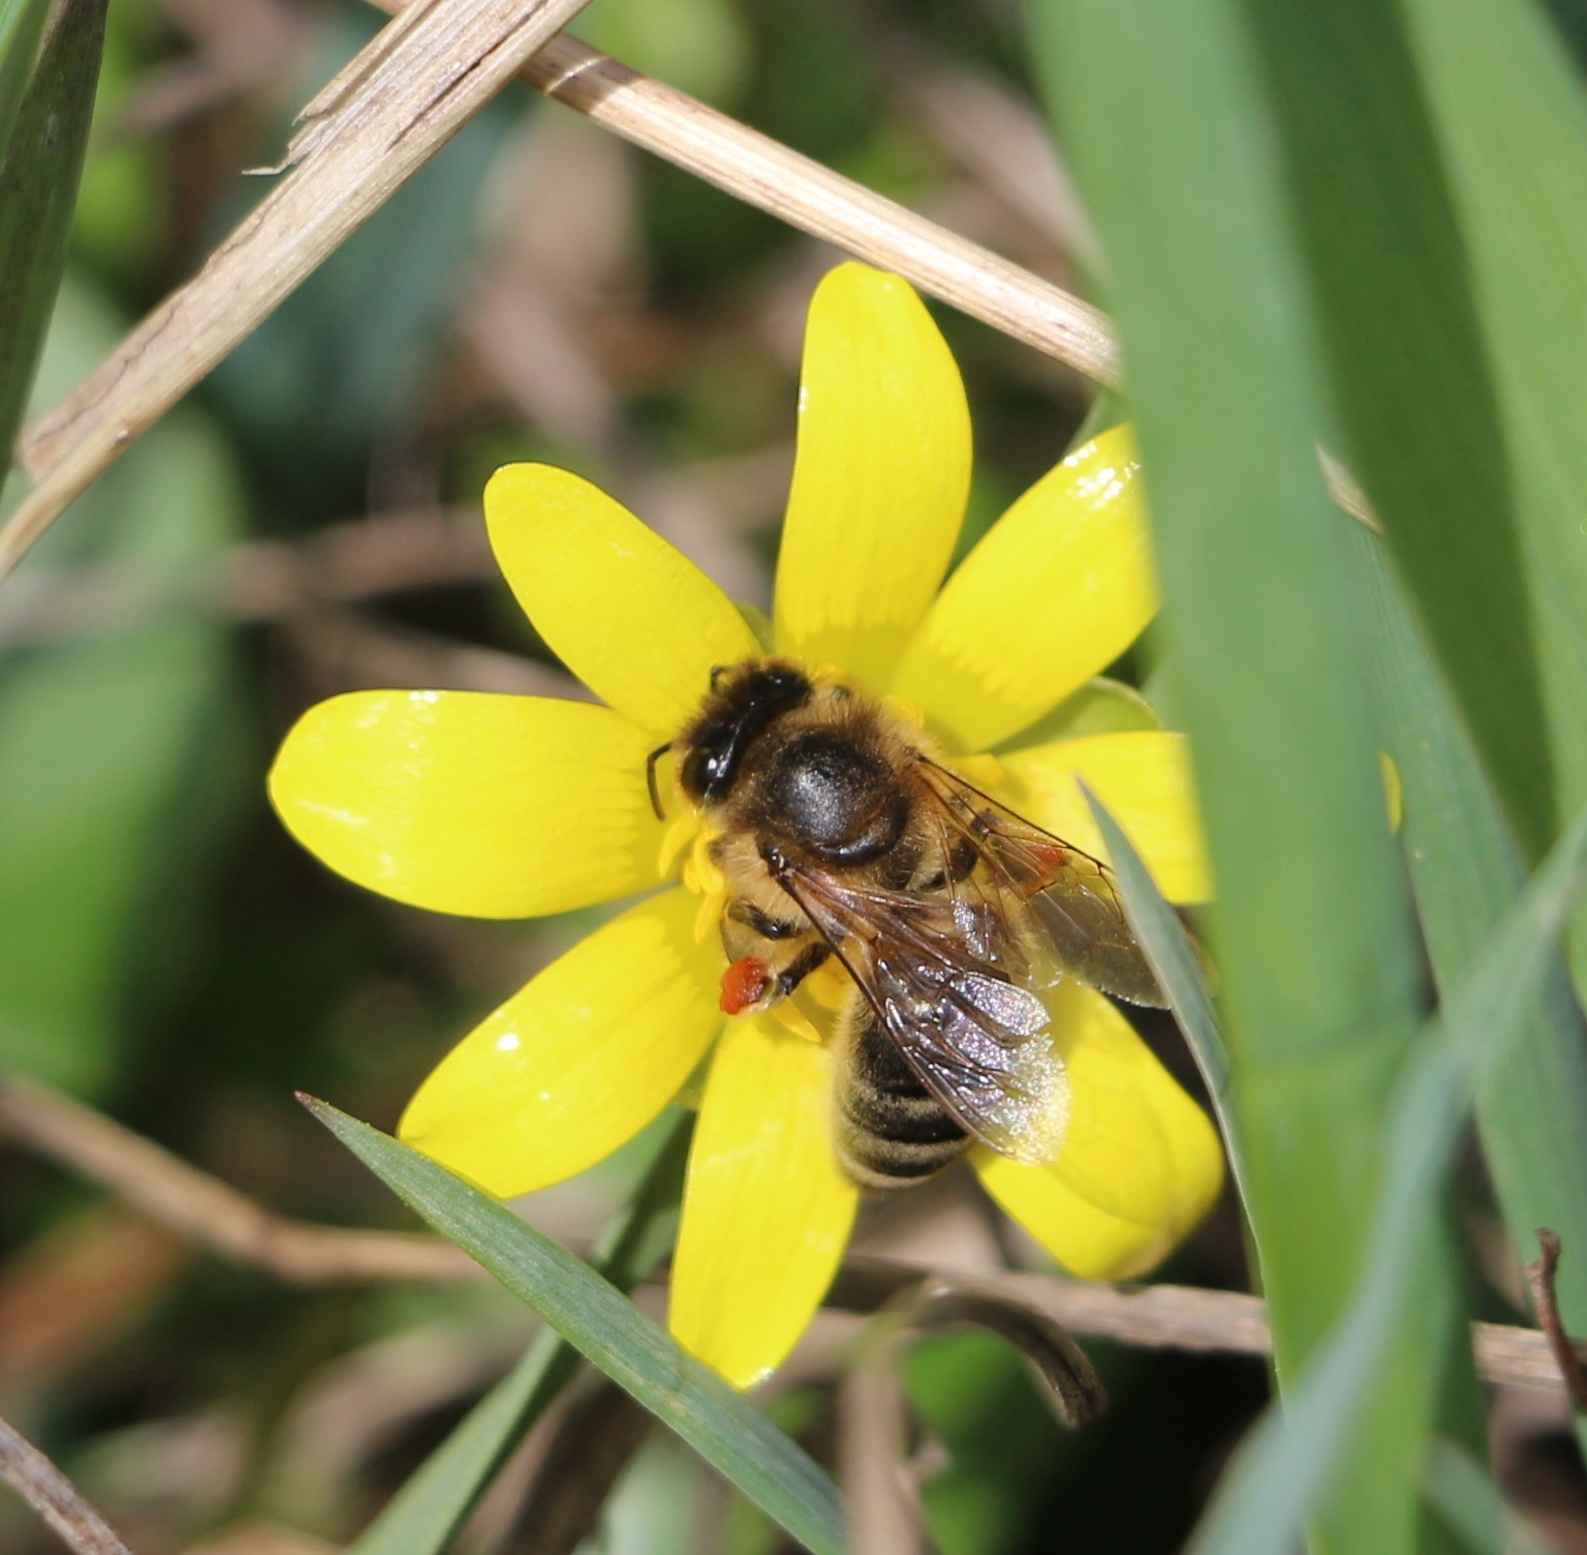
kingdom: Animalia
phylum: Arthropoda
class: Insecta
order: Hymenoptera
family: Apidae
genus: Apis
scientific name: Apis mellifera
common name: Honey bee
